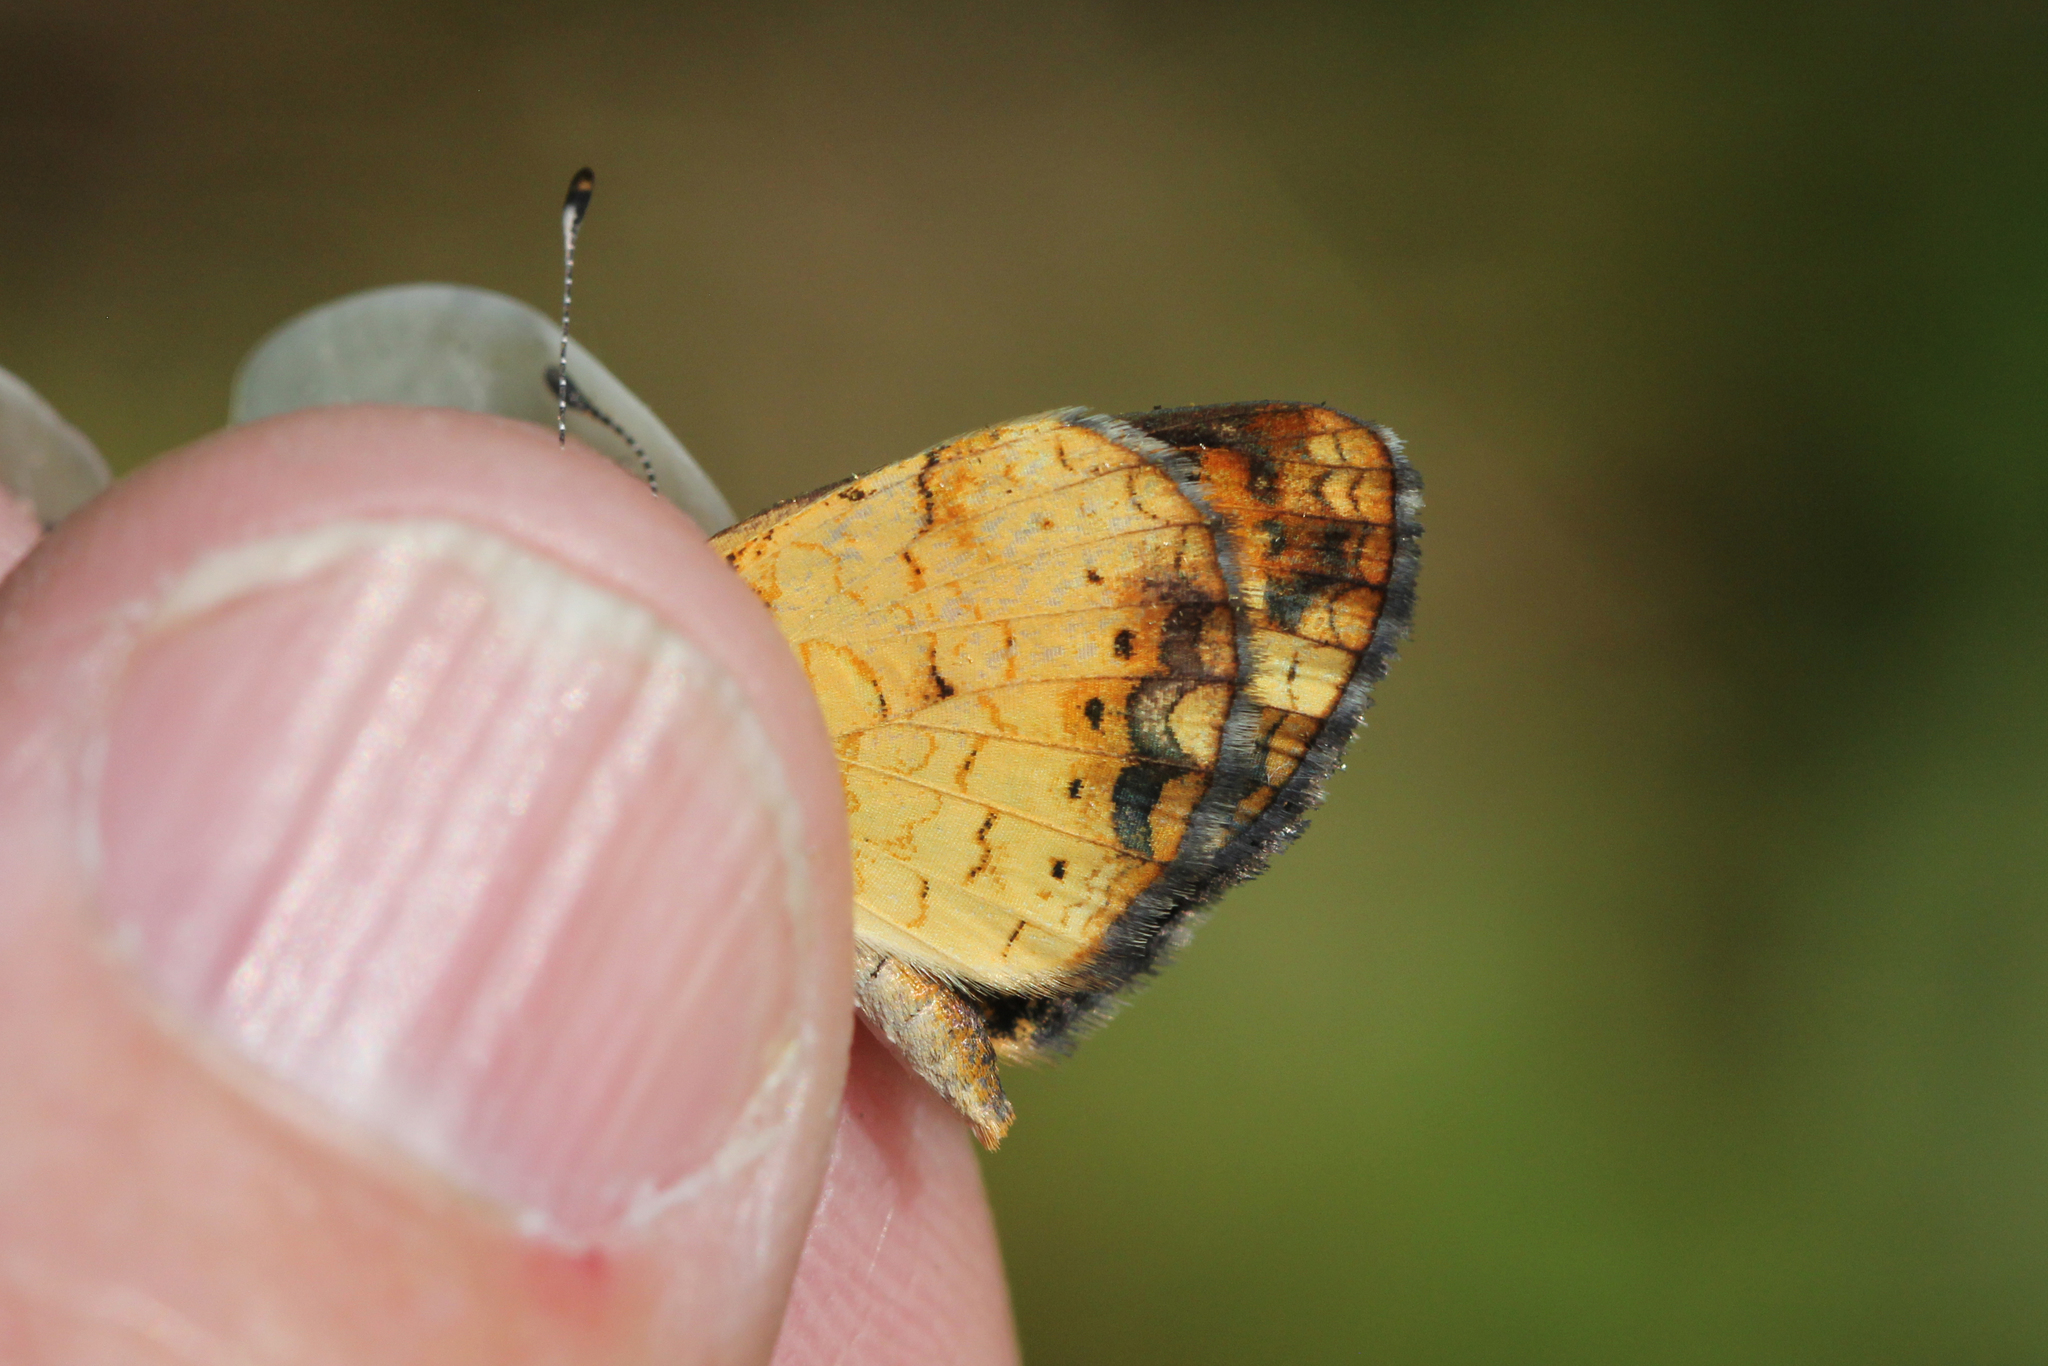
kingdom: Animalia
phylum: Arthropoda
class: Insecta
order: Lepidoptera
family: Nymphalidae
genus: Phyciodes
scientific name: Phyciodes tharos
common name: Pearl crescent
